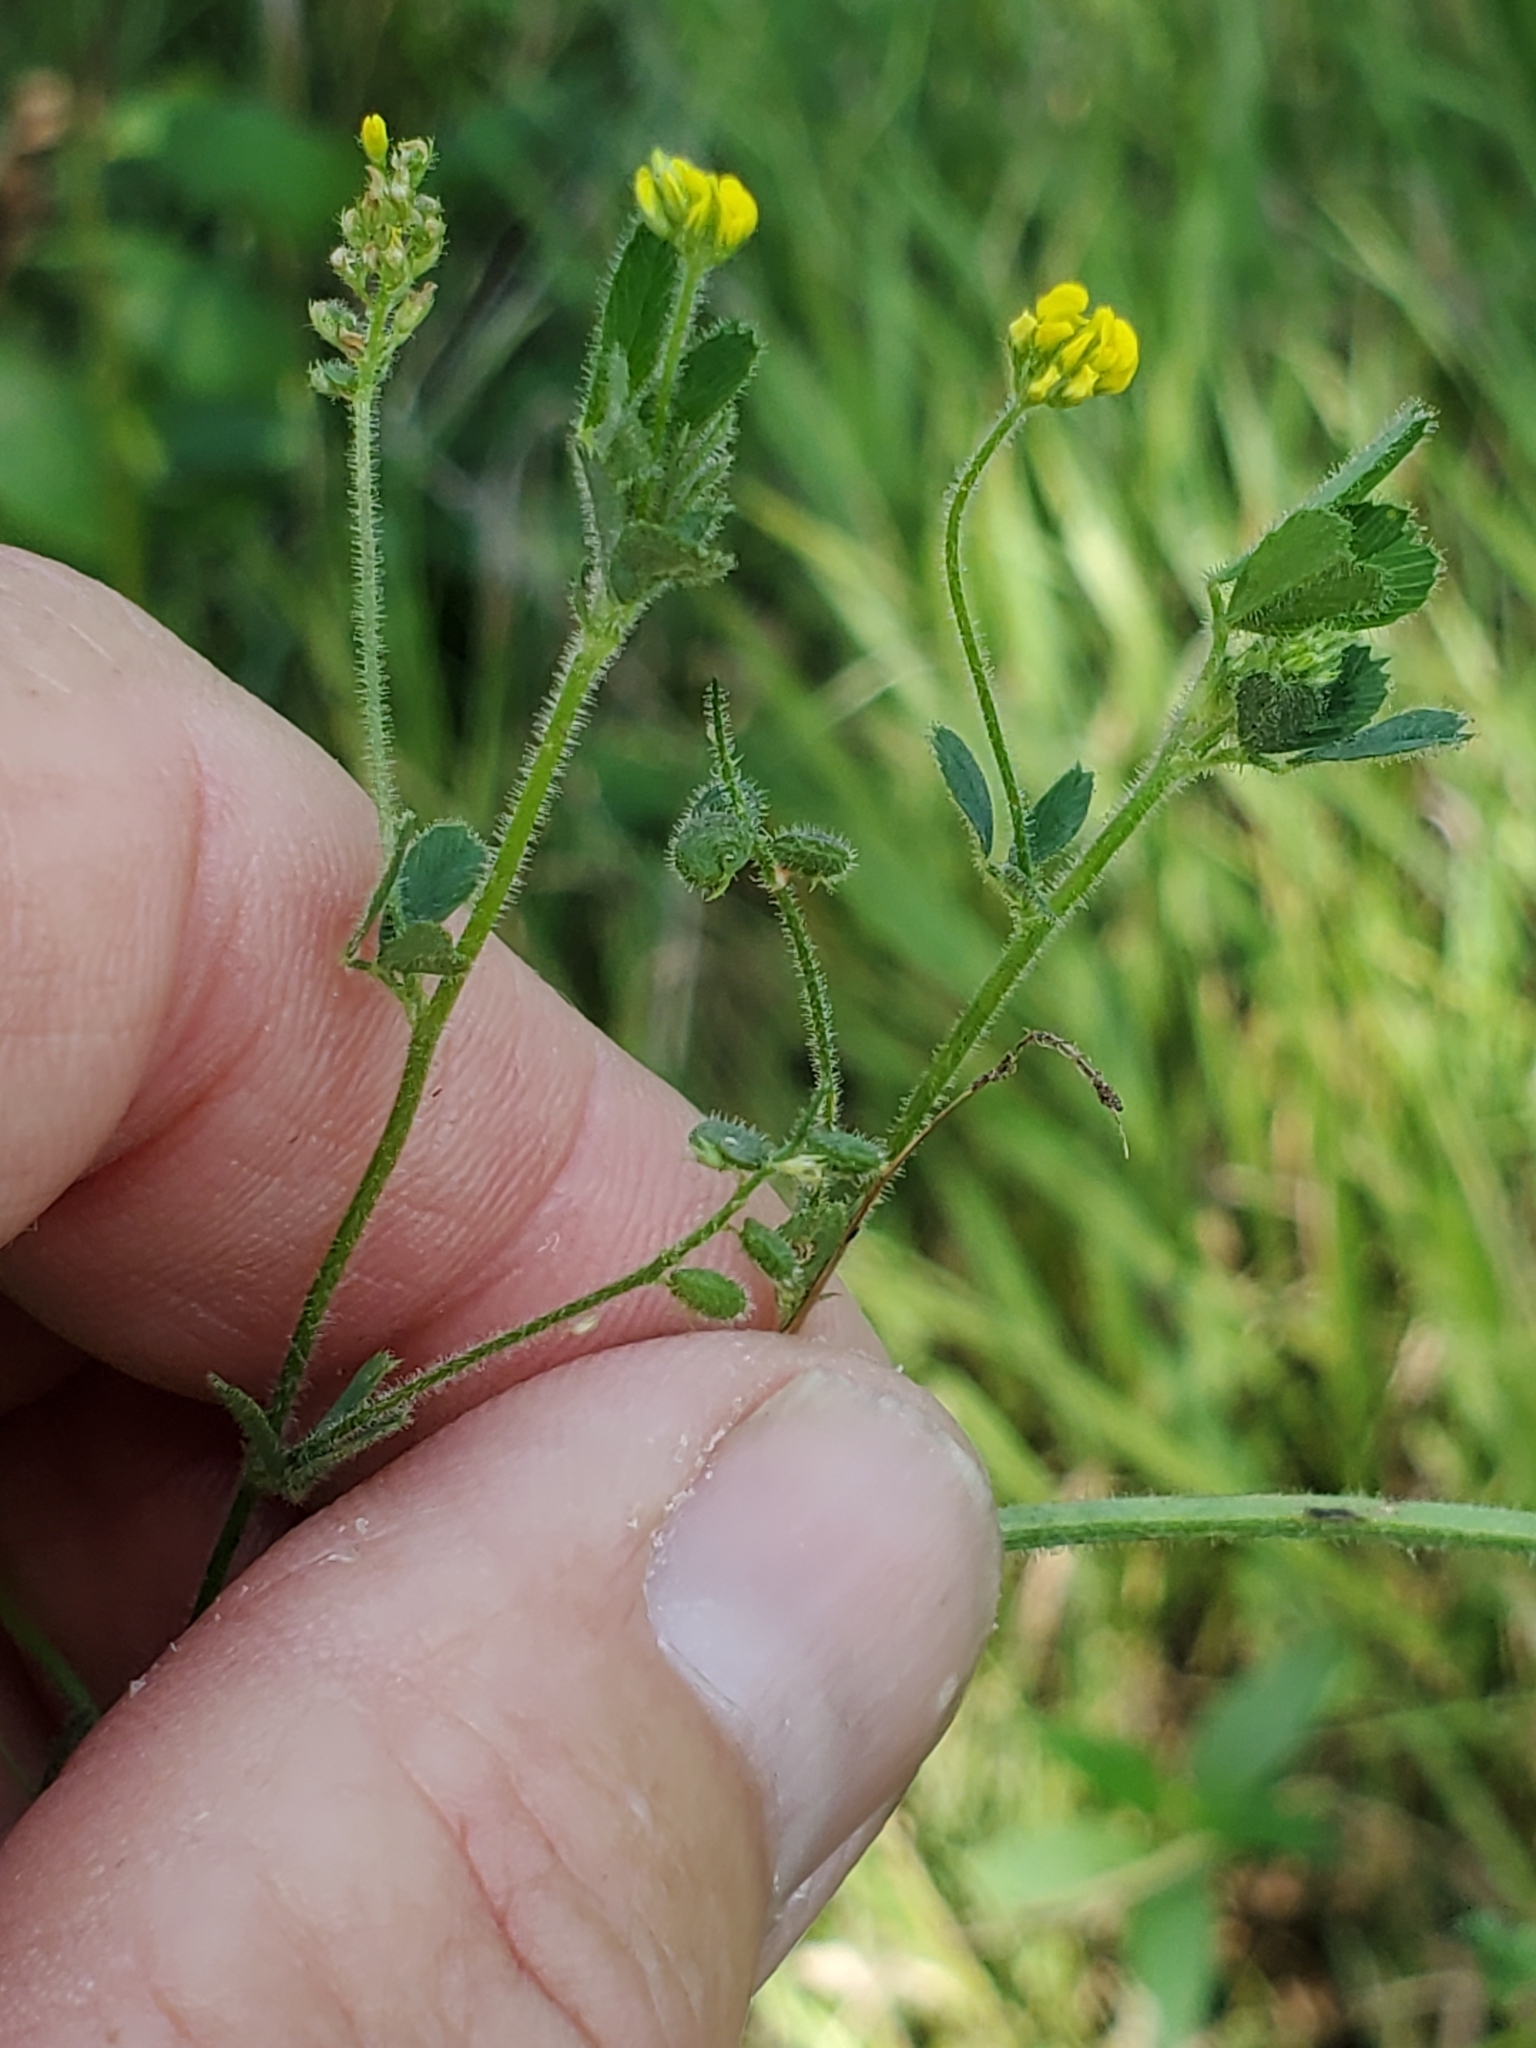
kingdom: Plantae
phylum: Tracheophyta
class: Magnoliopsida
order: Fabales
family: Fabaceae
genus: Medicago
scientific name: Medicago lupulina
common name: Black medick
